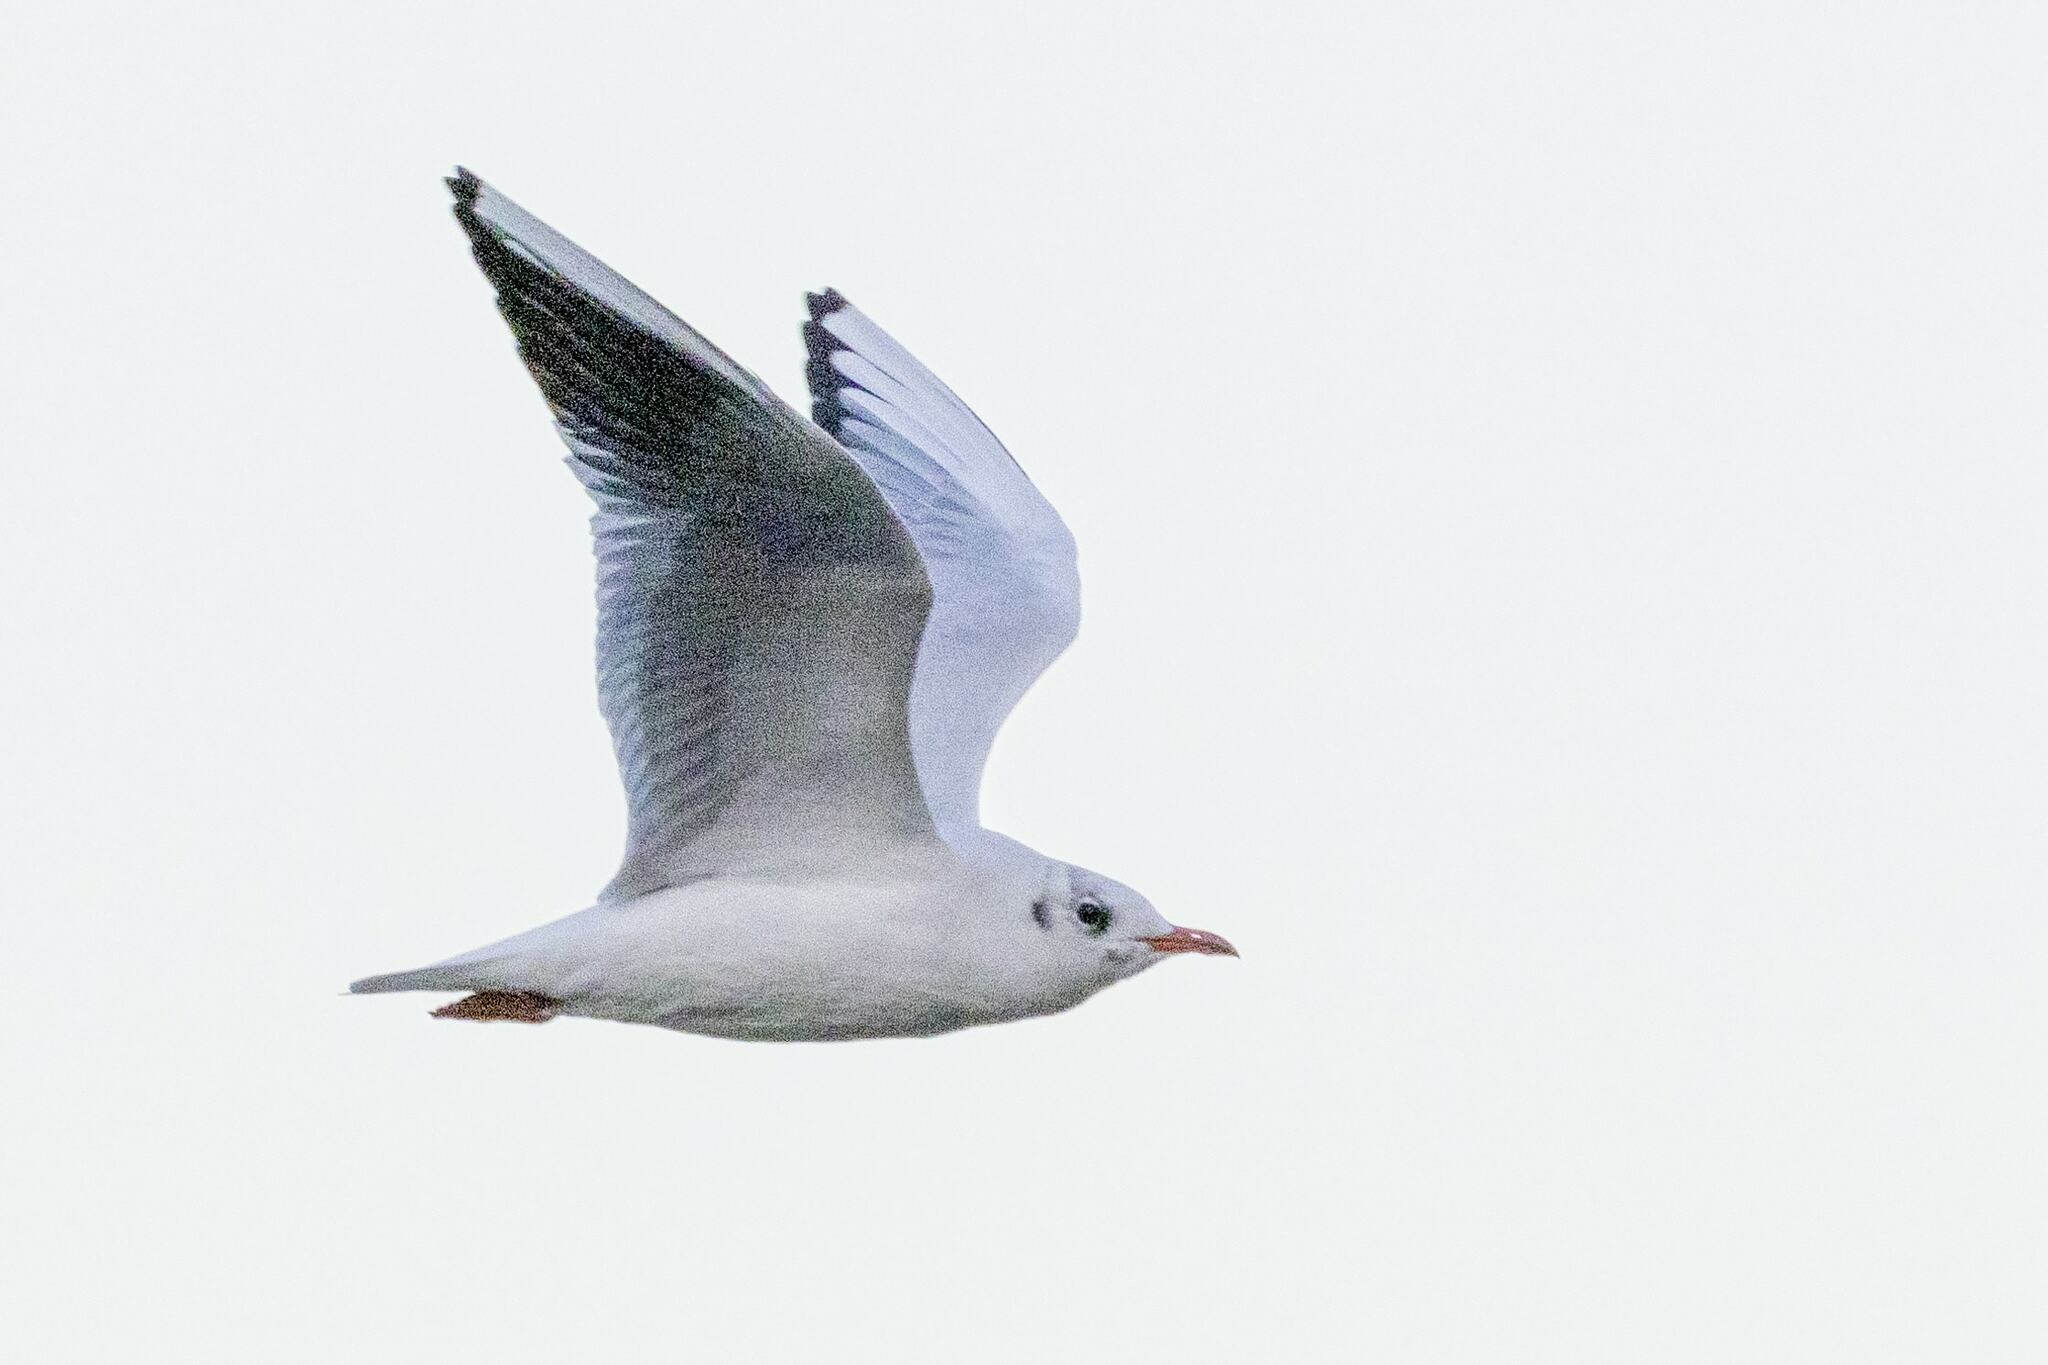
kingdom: Animalia
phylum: Chordata
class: Aves
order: Charadriiformes
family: Laridae
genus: Chroicocephalus
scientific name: Chroicocephalus ridibundus
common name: Black-headed gull
